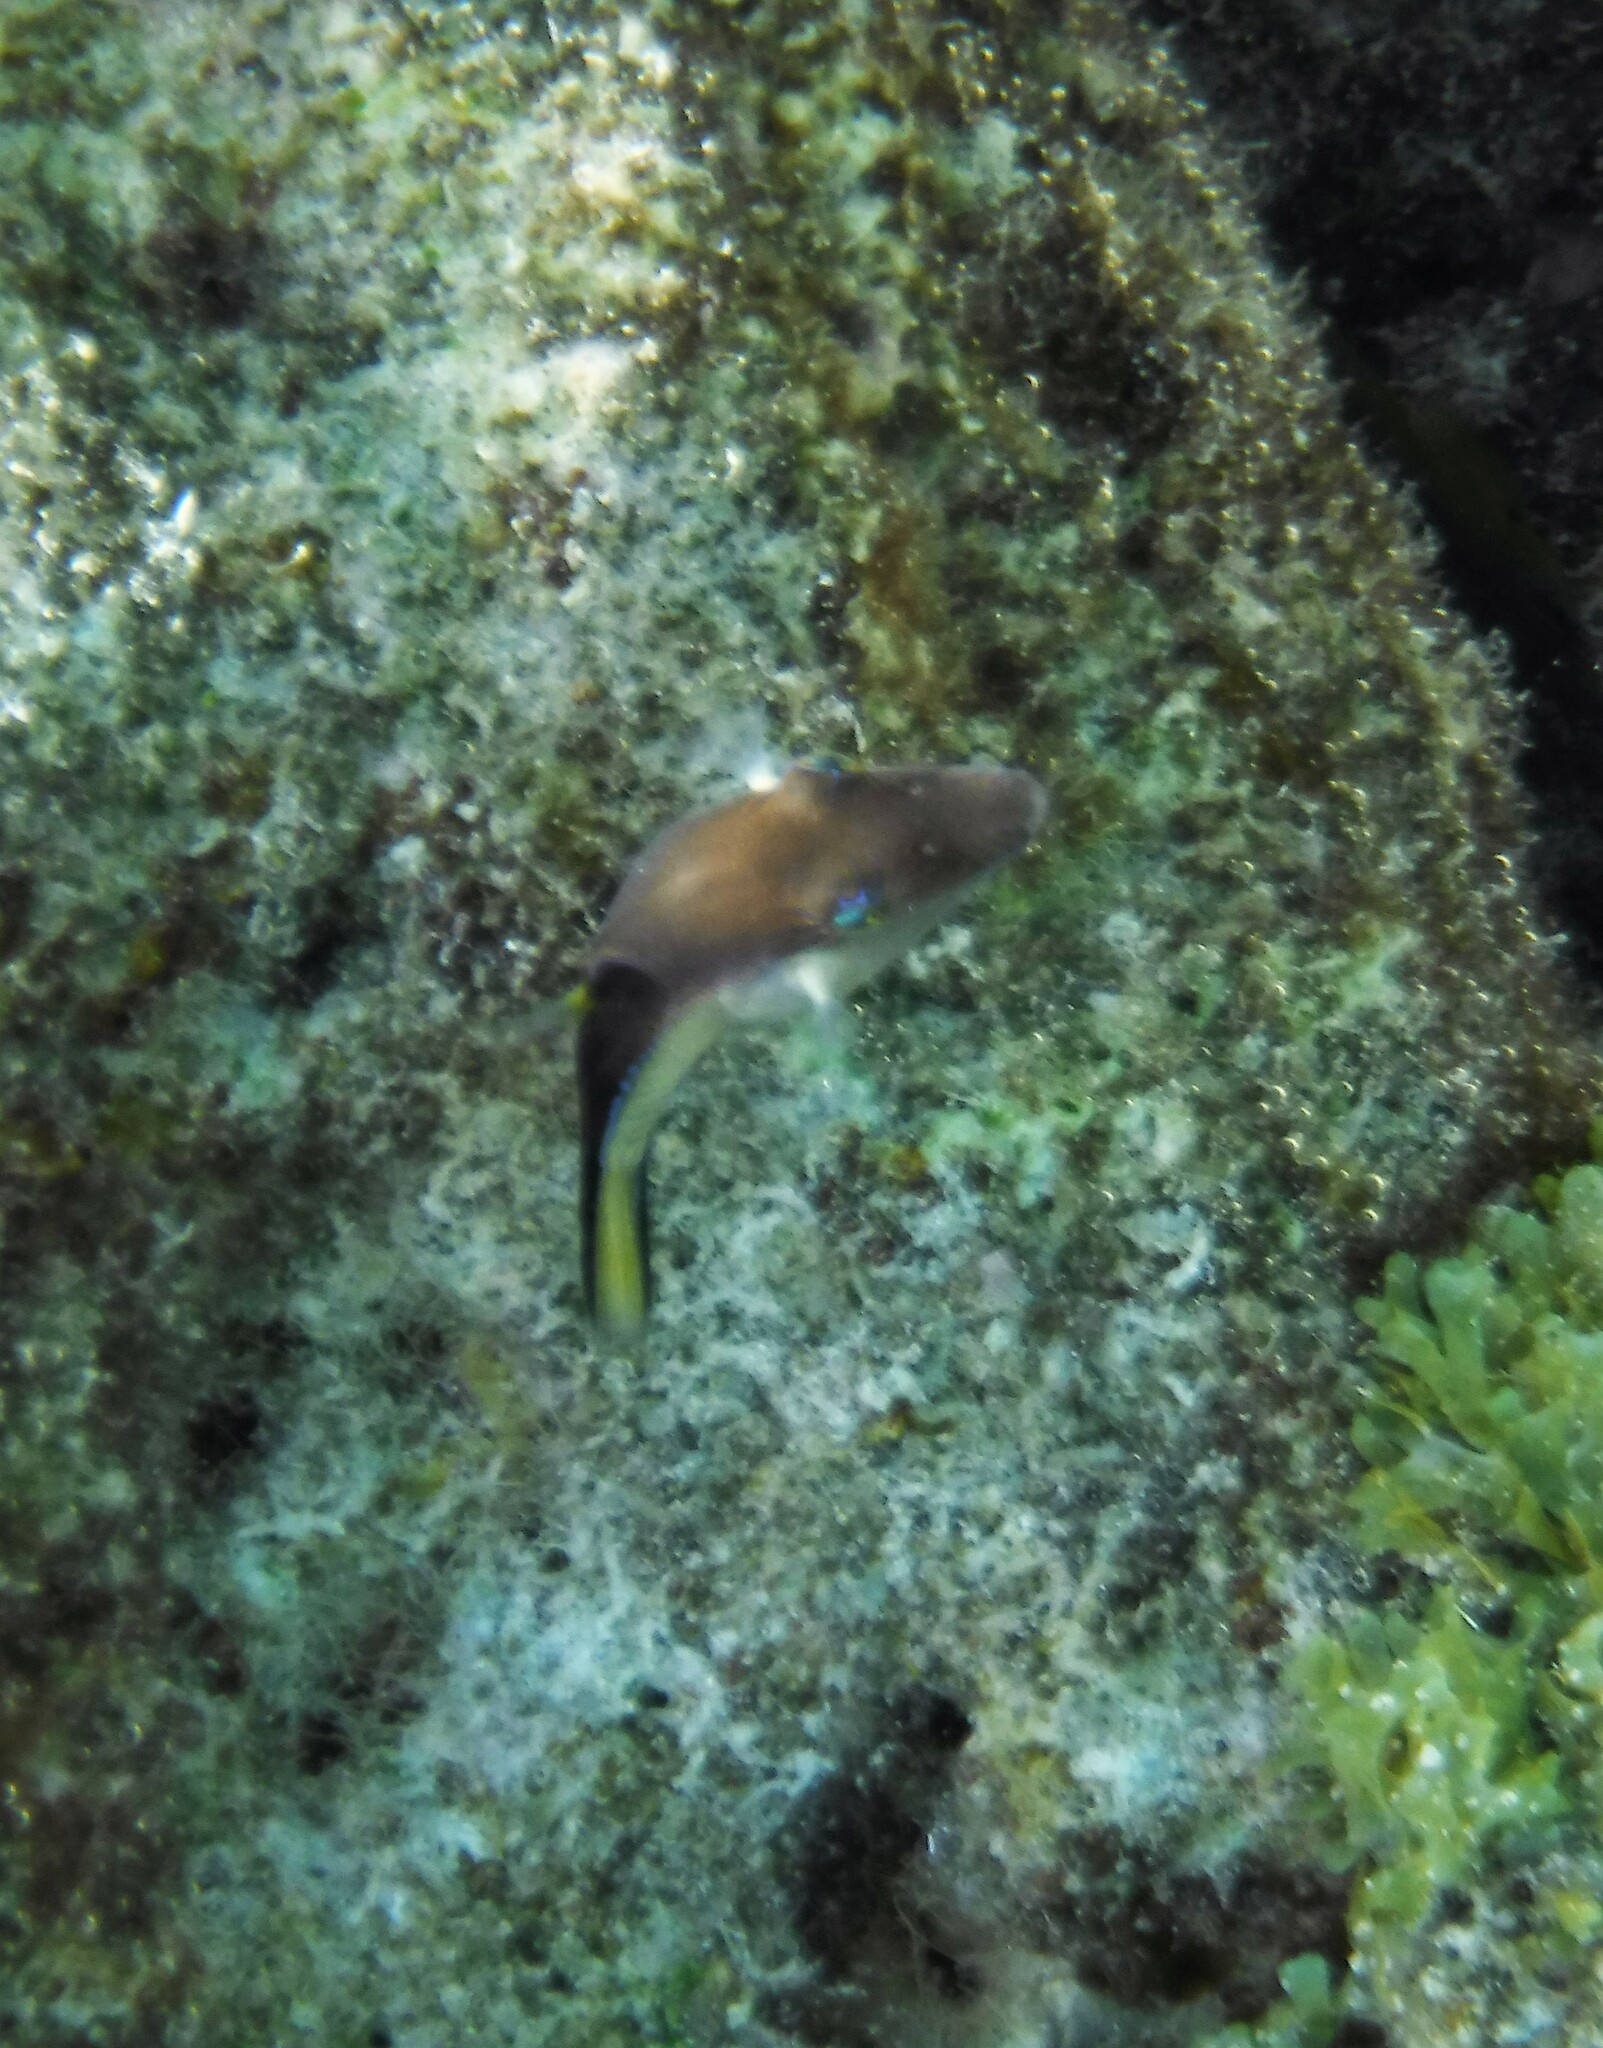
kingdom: Animalia
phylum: Chordata
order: Tetraodontiformes
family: Tetraodontidae
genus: Canthigaster
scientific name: Canthigaster rostrata
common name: Caribbean sharpnose-puffer
